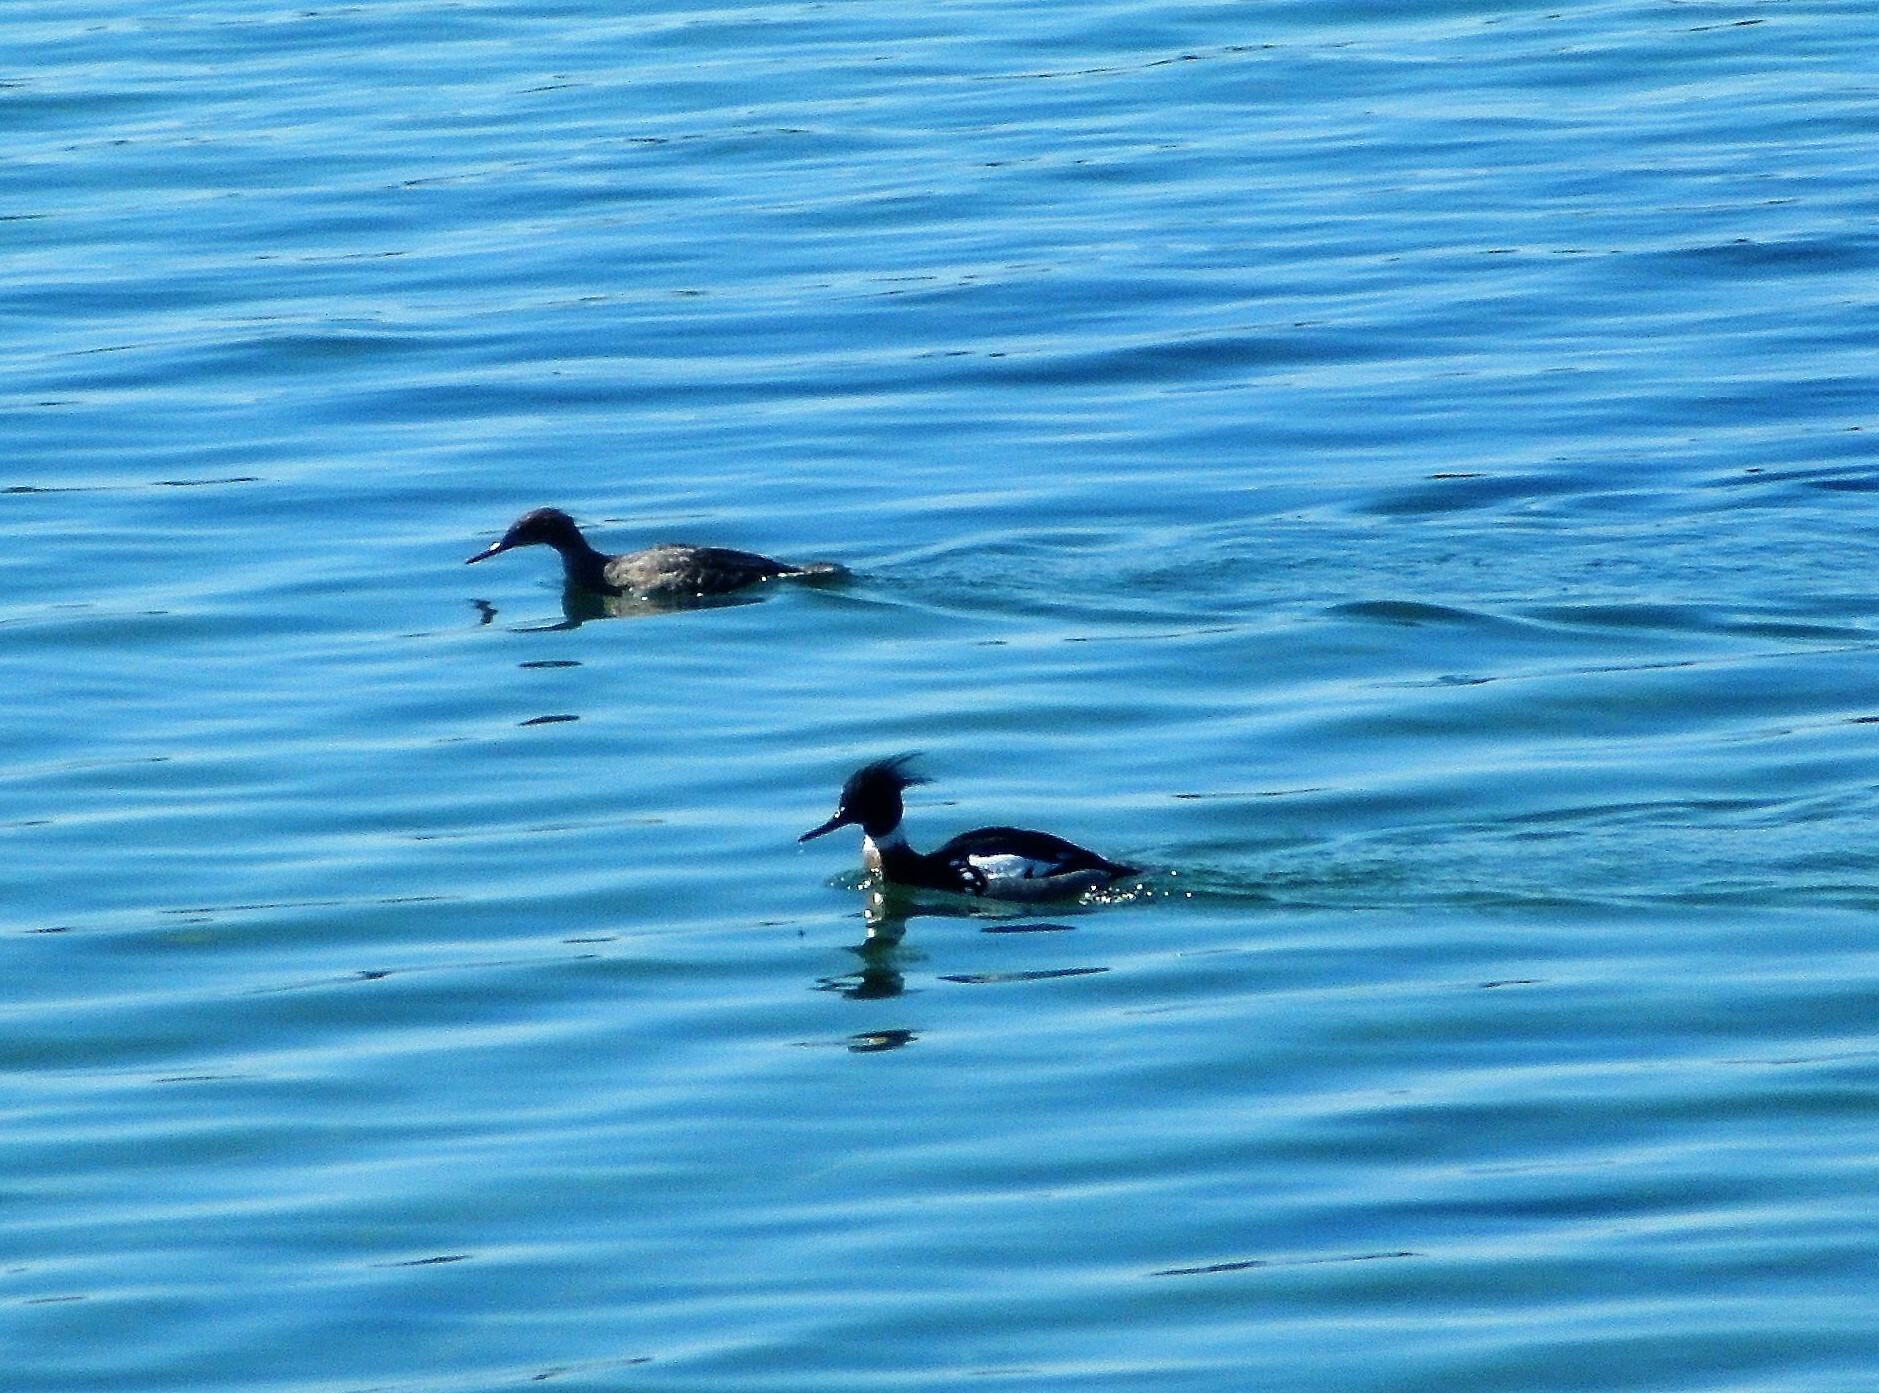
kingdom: Animalia
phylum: Chordata
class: Aves
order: Anseriformes
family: Anatidae
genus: Mergus
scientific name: Mergus serrator
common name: Red-breasted merganser
